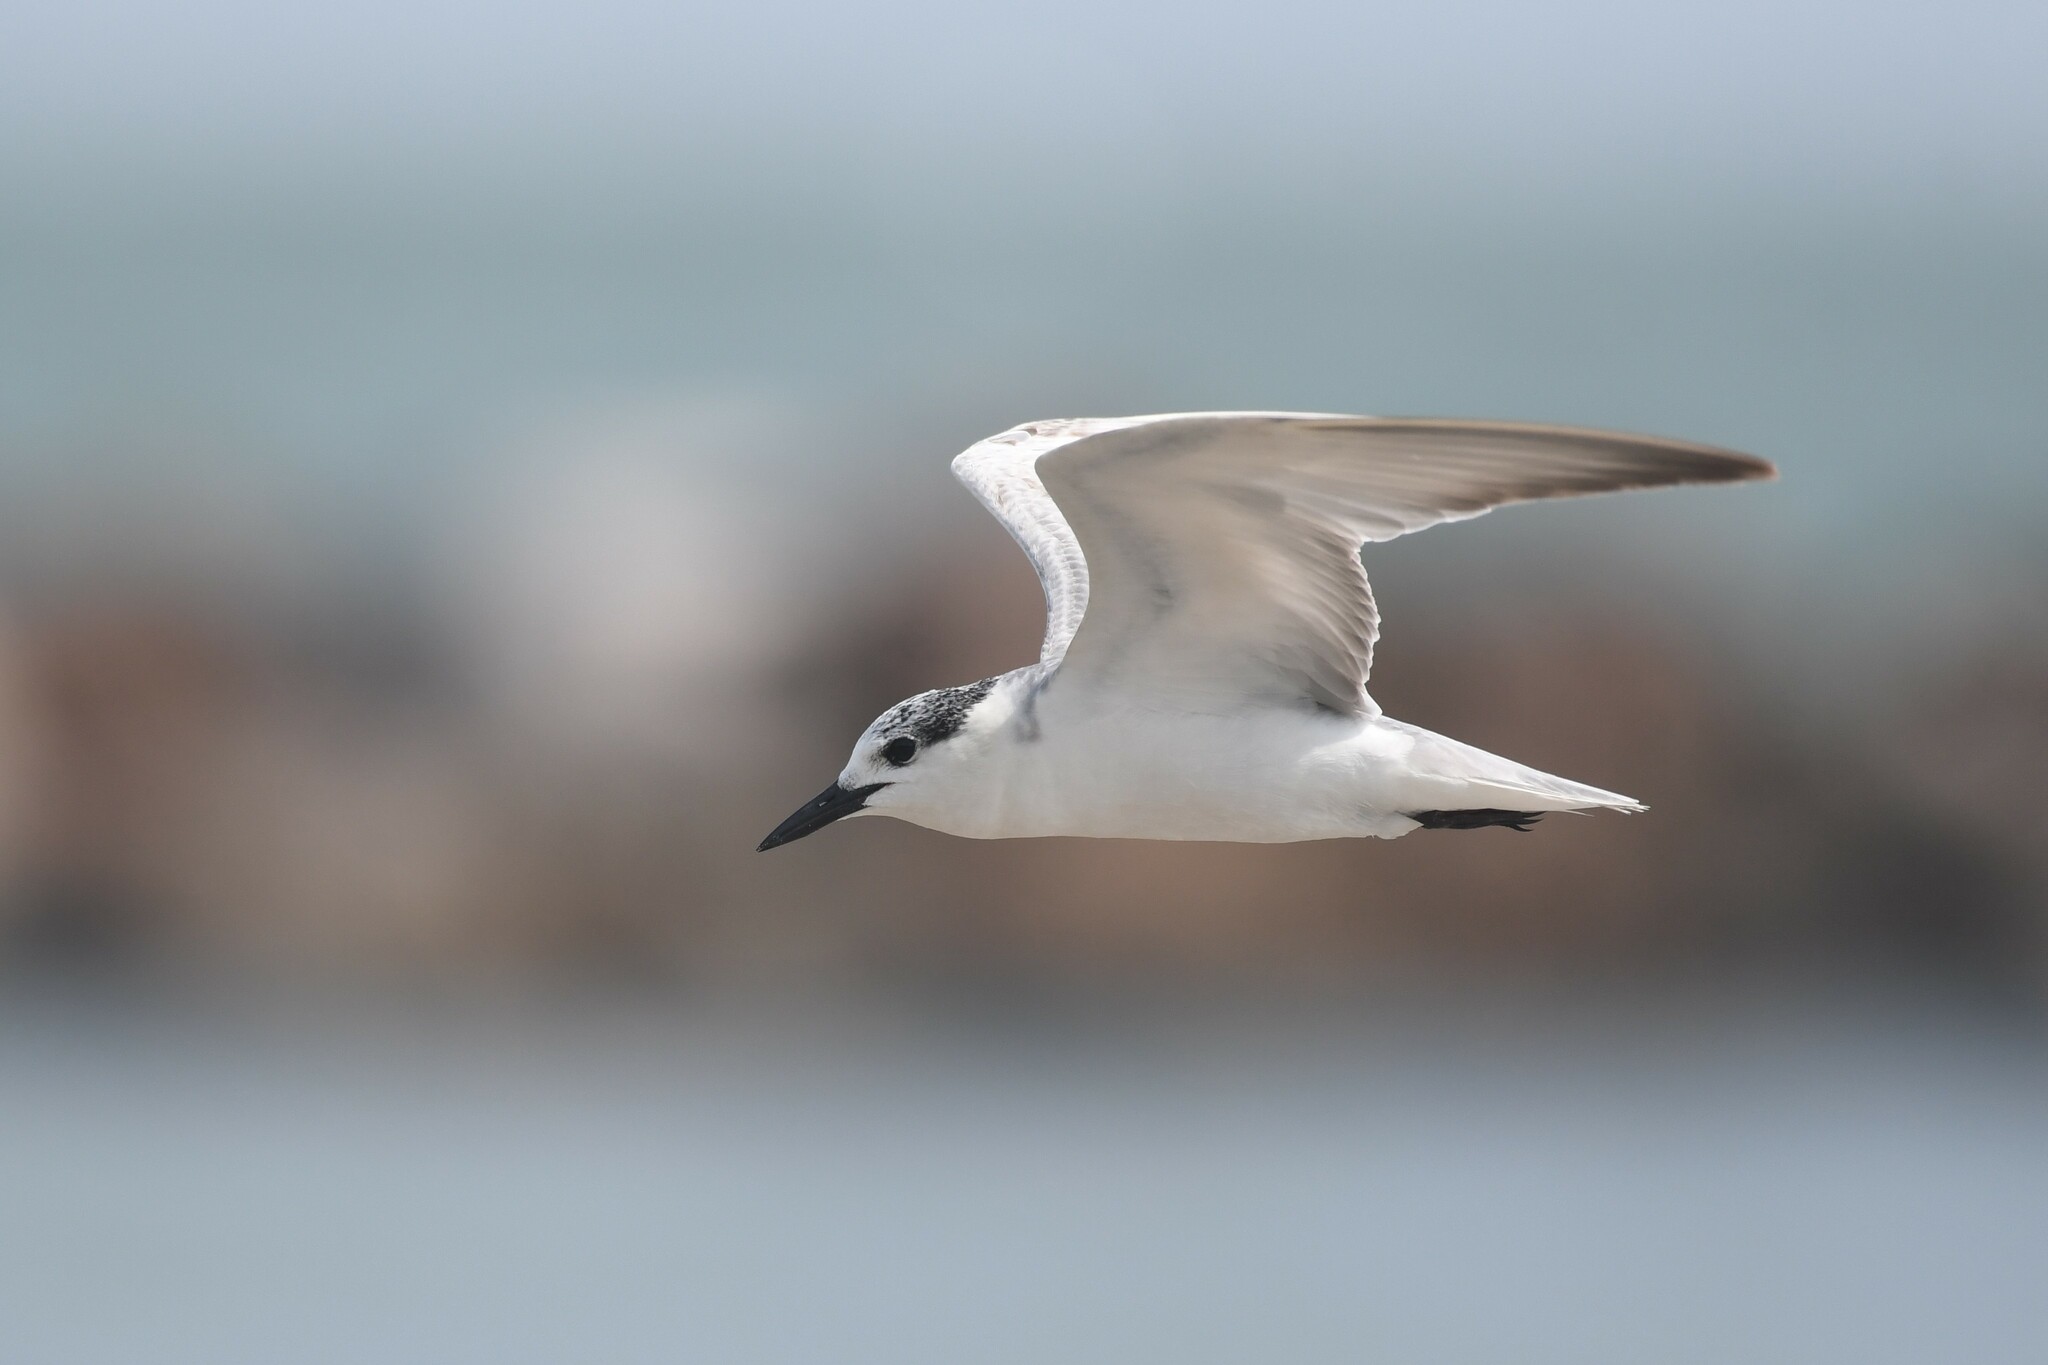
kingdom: Animalia
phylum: Chordata
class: Aves
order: Charadriiformes
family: Laridae
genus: Chlidonias
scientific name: Chlidonias hybrida
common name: Whiskered tern
